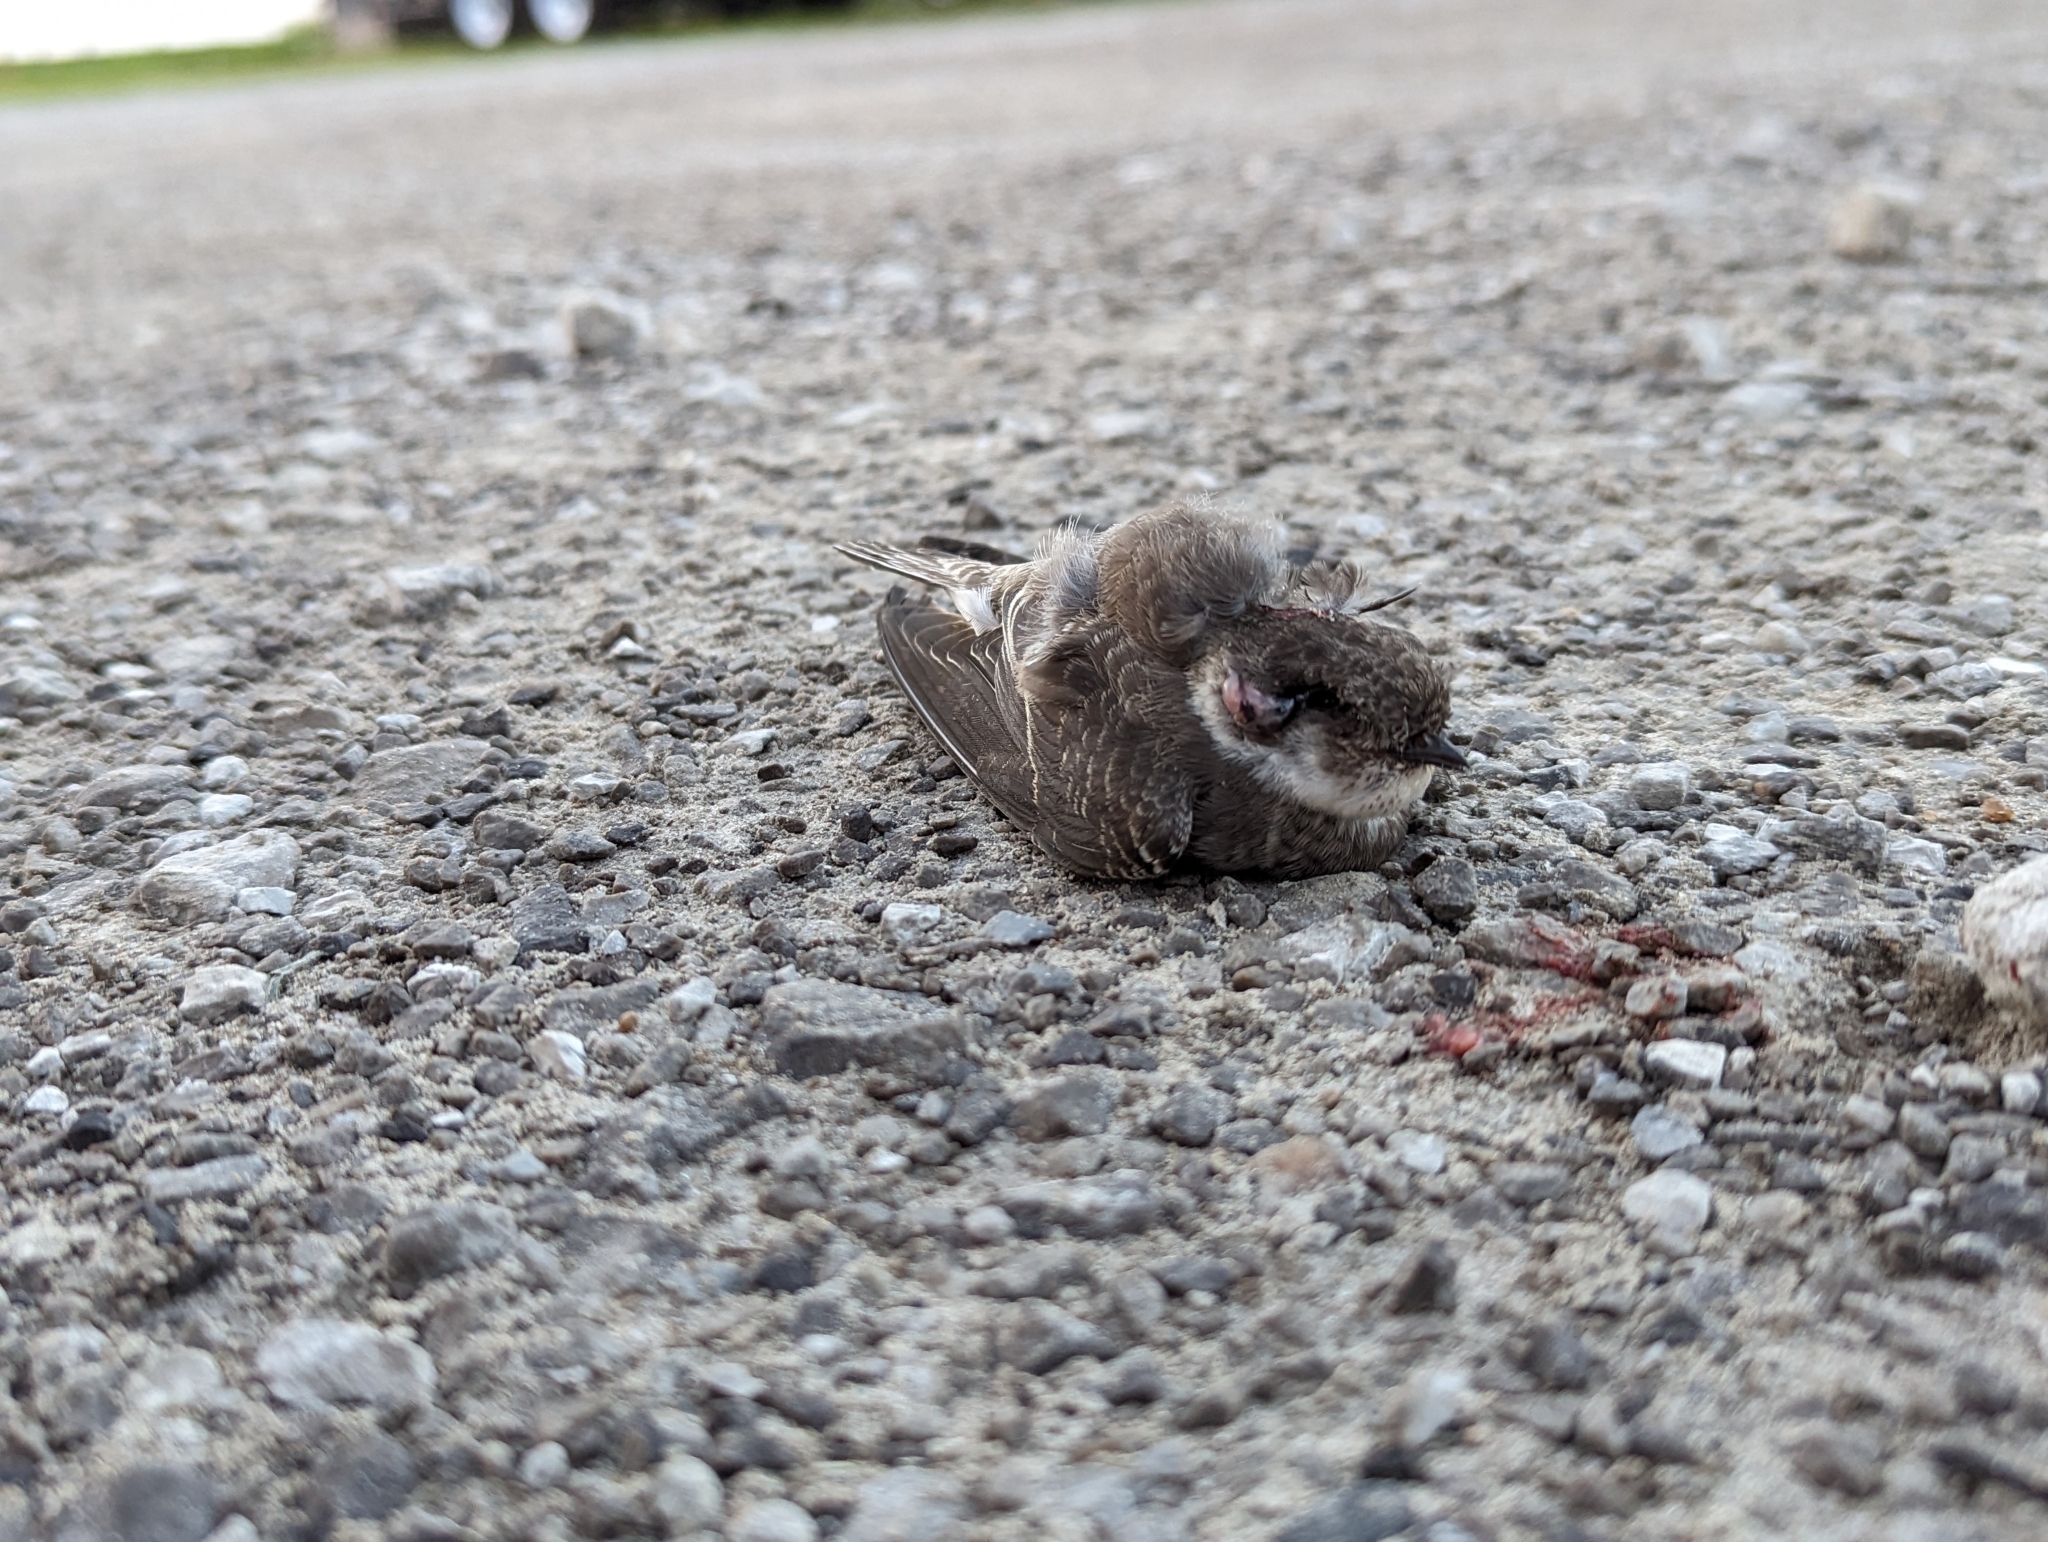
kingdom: Animalia
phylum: Chordata
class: Aves
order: Passeriformes
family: Hirundinidae
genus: Riparia
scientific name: Riparia riparia
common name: Sand martin
